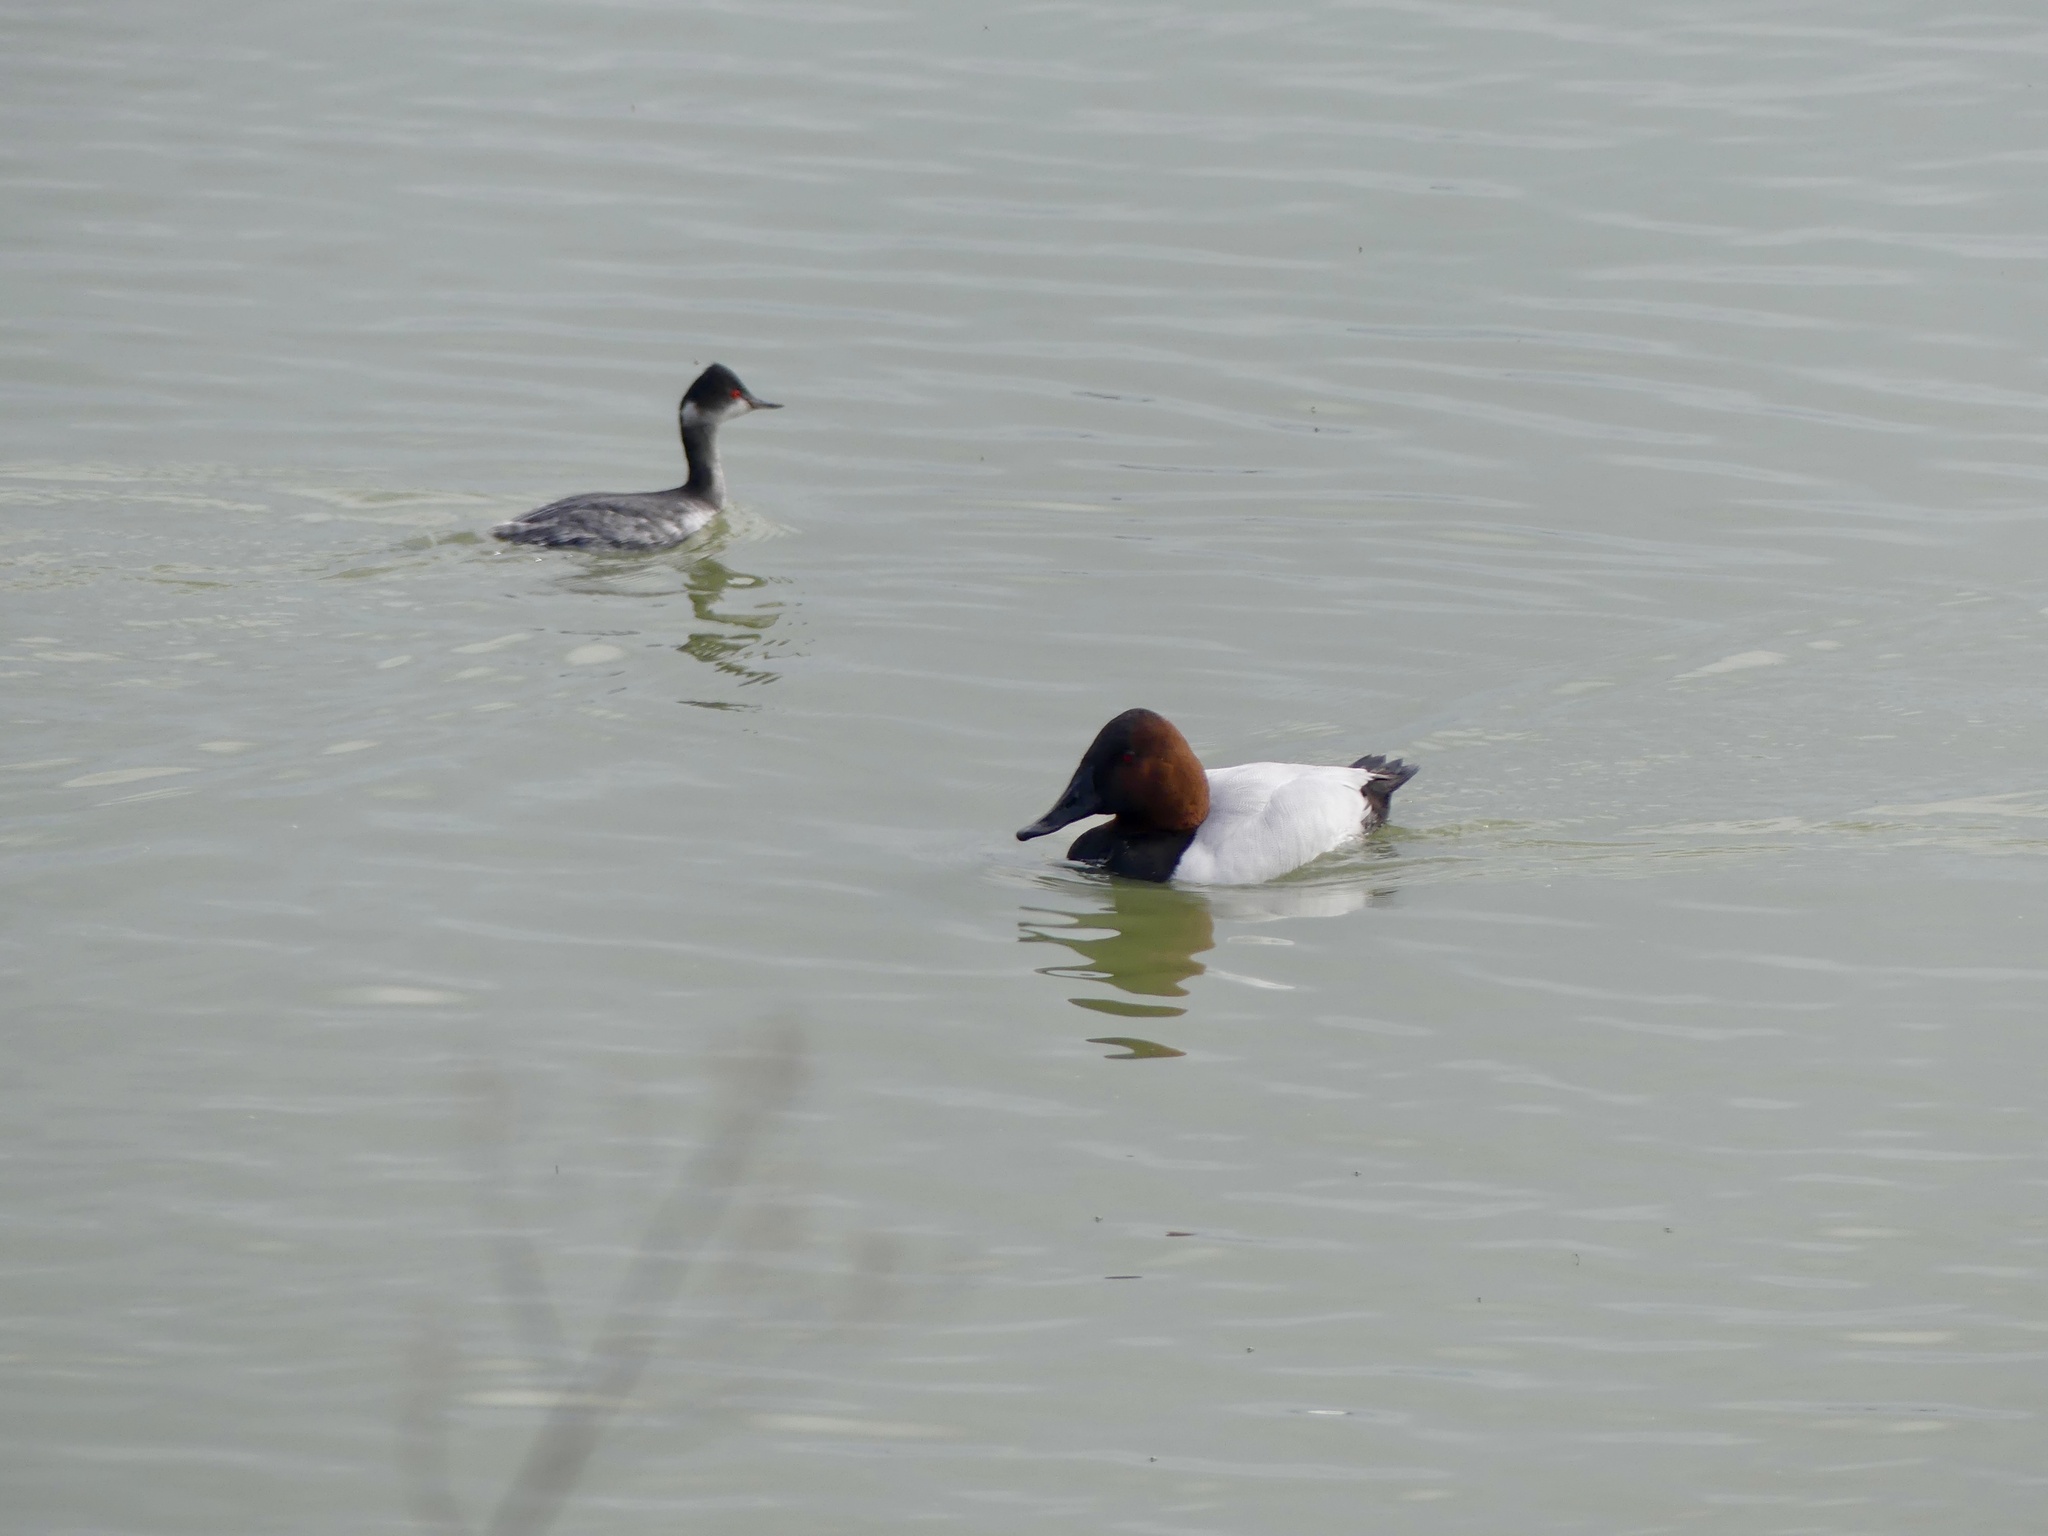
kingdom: Animalia
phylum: Chordata
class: Aves
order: Anseriformes
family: Anatidae
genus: Aythya
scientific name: Aythya valisineria
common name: Canvasback
